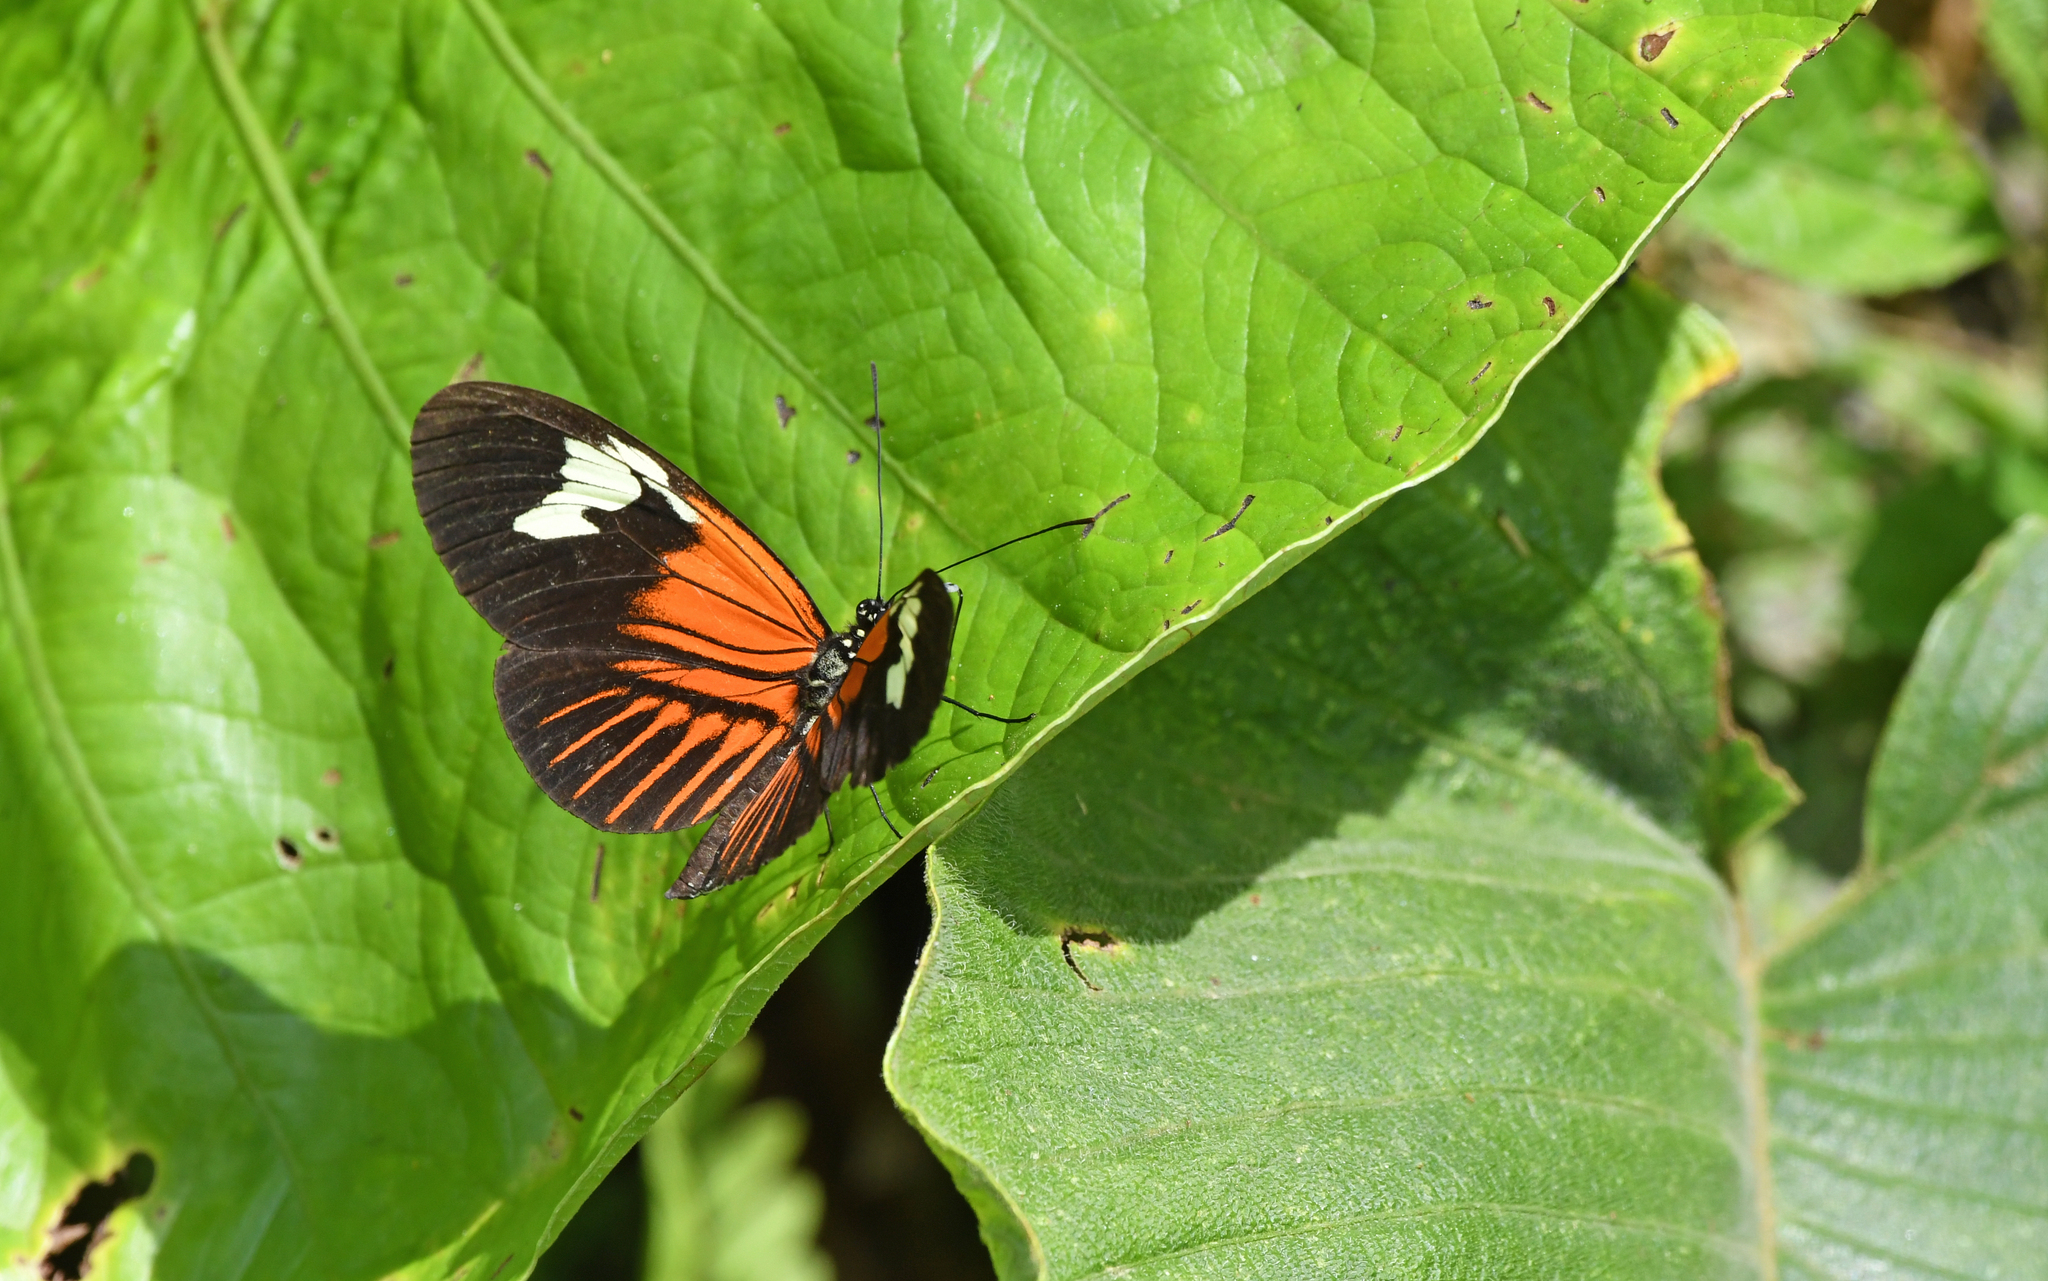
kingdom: Animalia
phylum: Arthropoda
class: Insecta
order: Lepidoptera
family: Nymphalidae
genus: Heliconius
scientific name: Heliconius melpomene
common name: Postman
